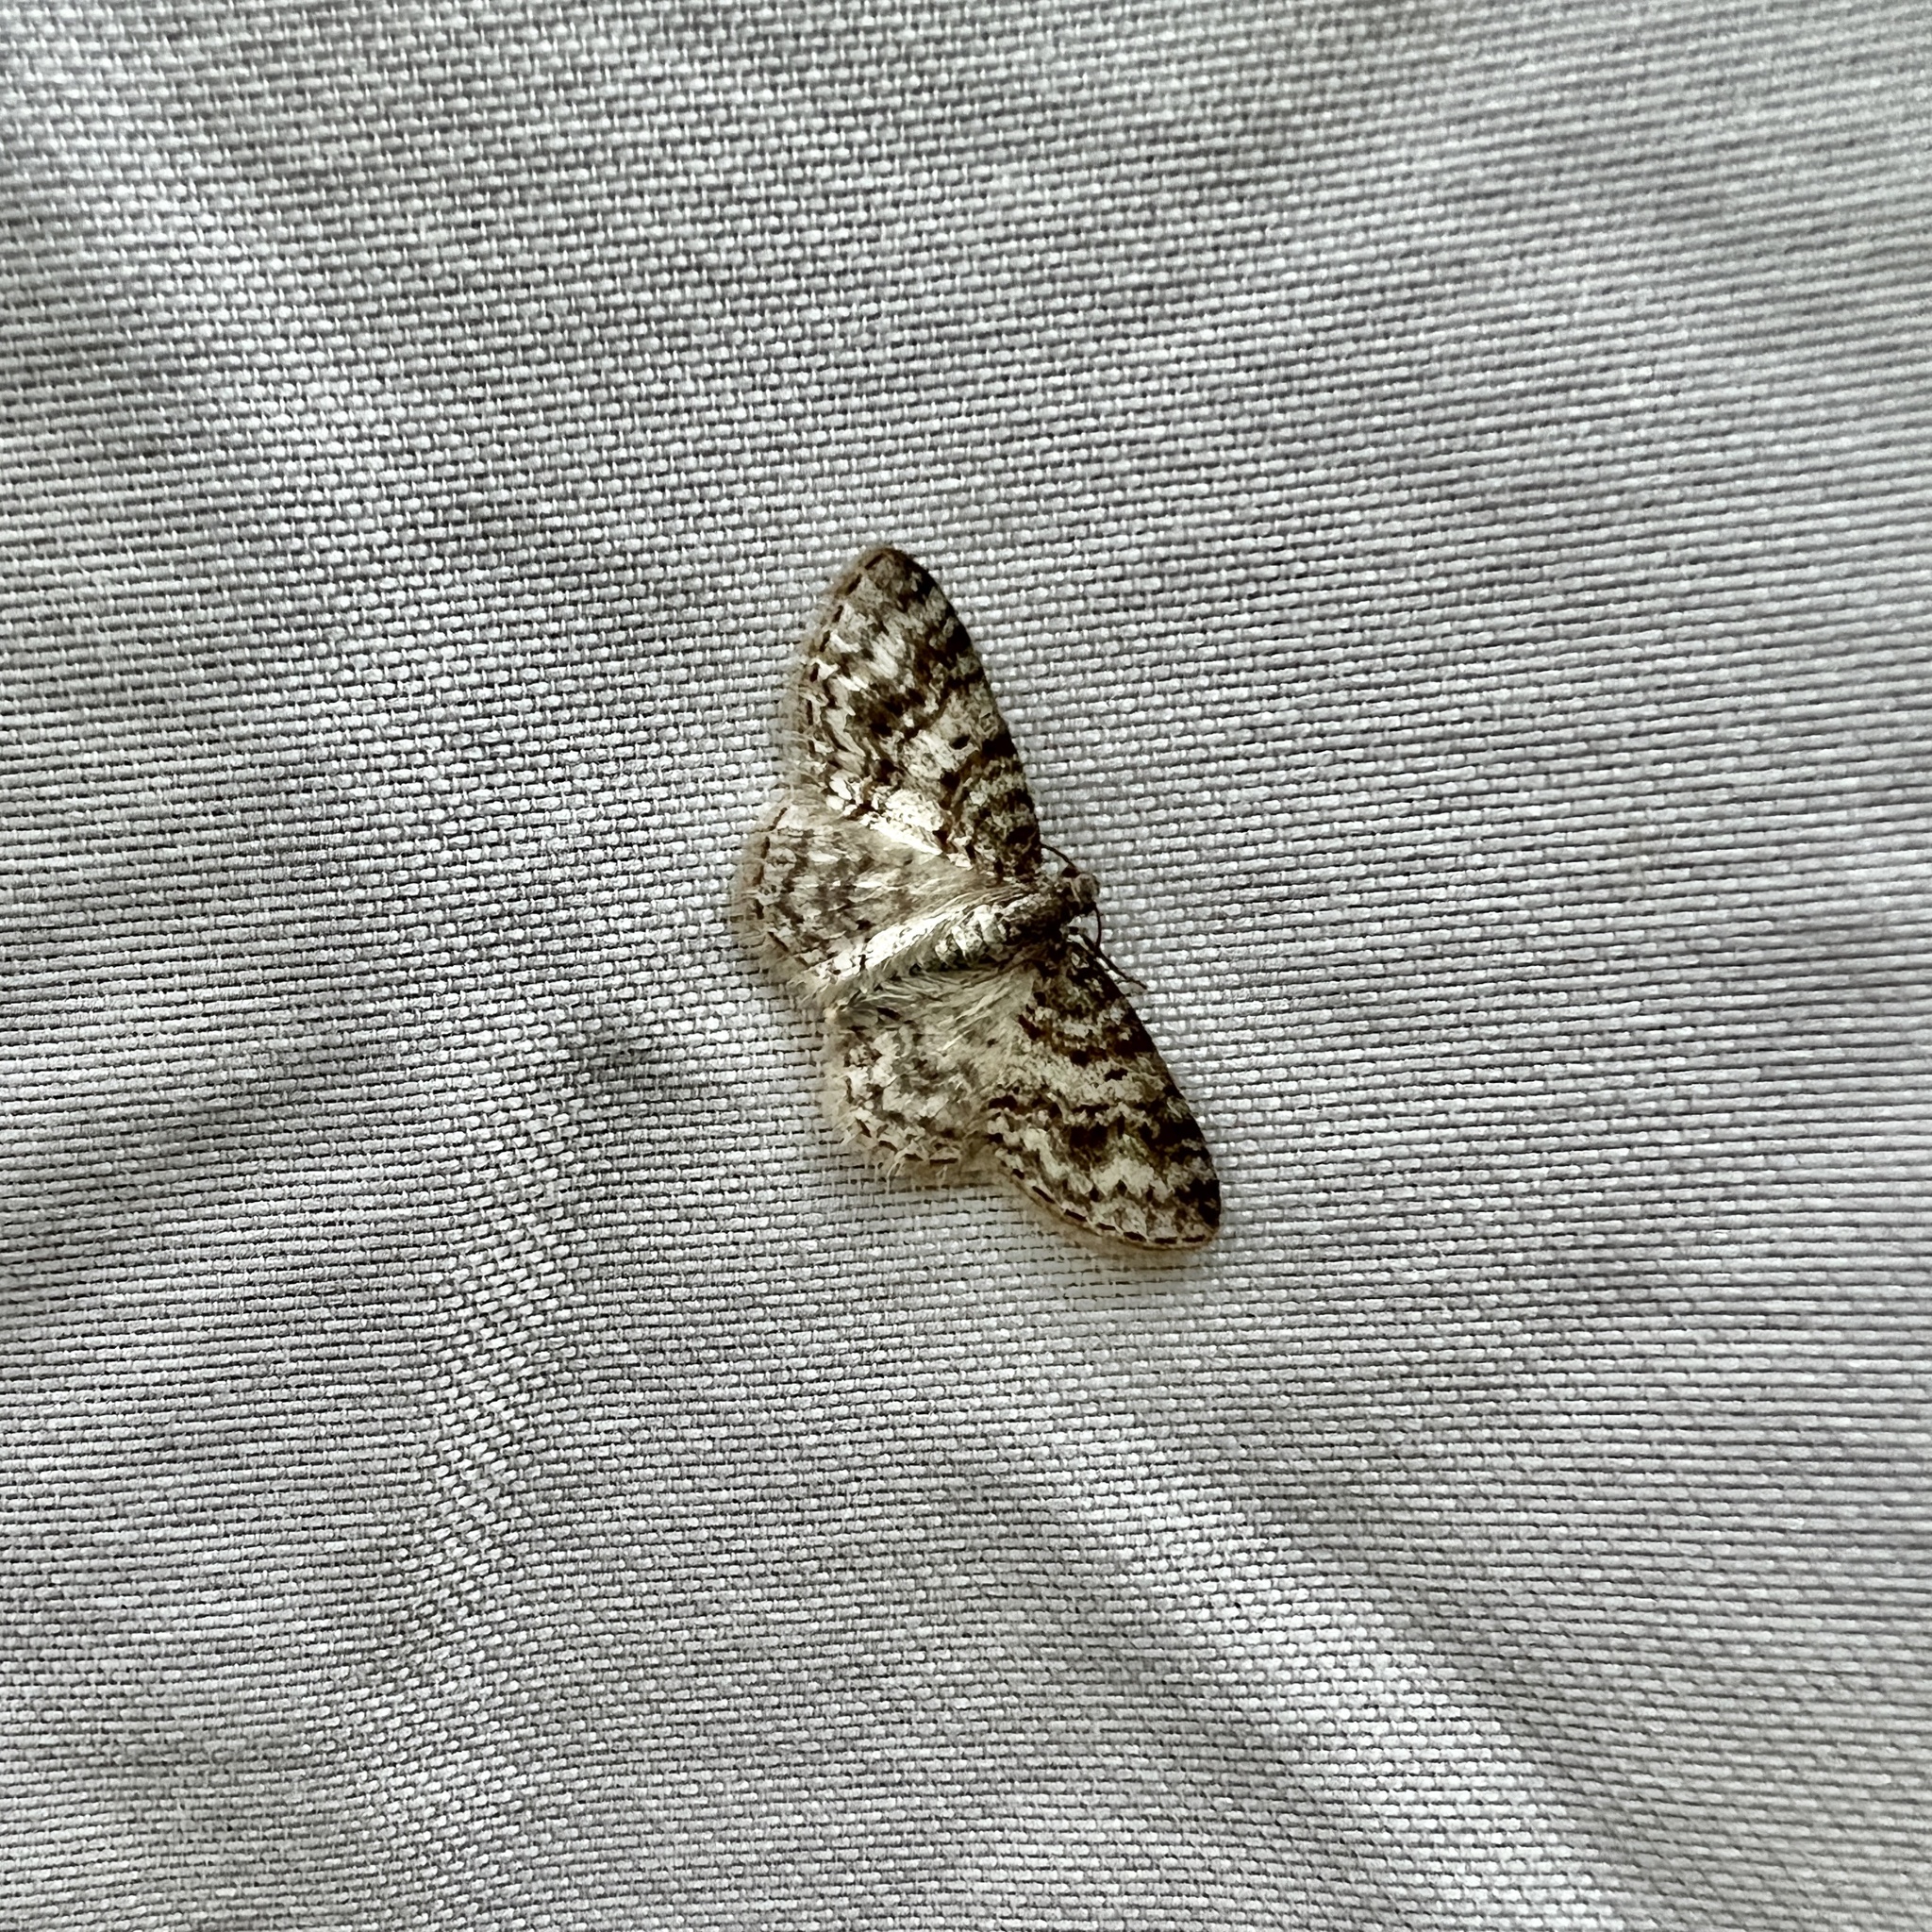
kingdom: Animalia
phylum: Arthropoda
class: Insecta
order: Lepidoptera
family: Geometridae
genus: Hydrelia
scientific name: Hydrelia inornata
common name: Unadorned carpet moth
